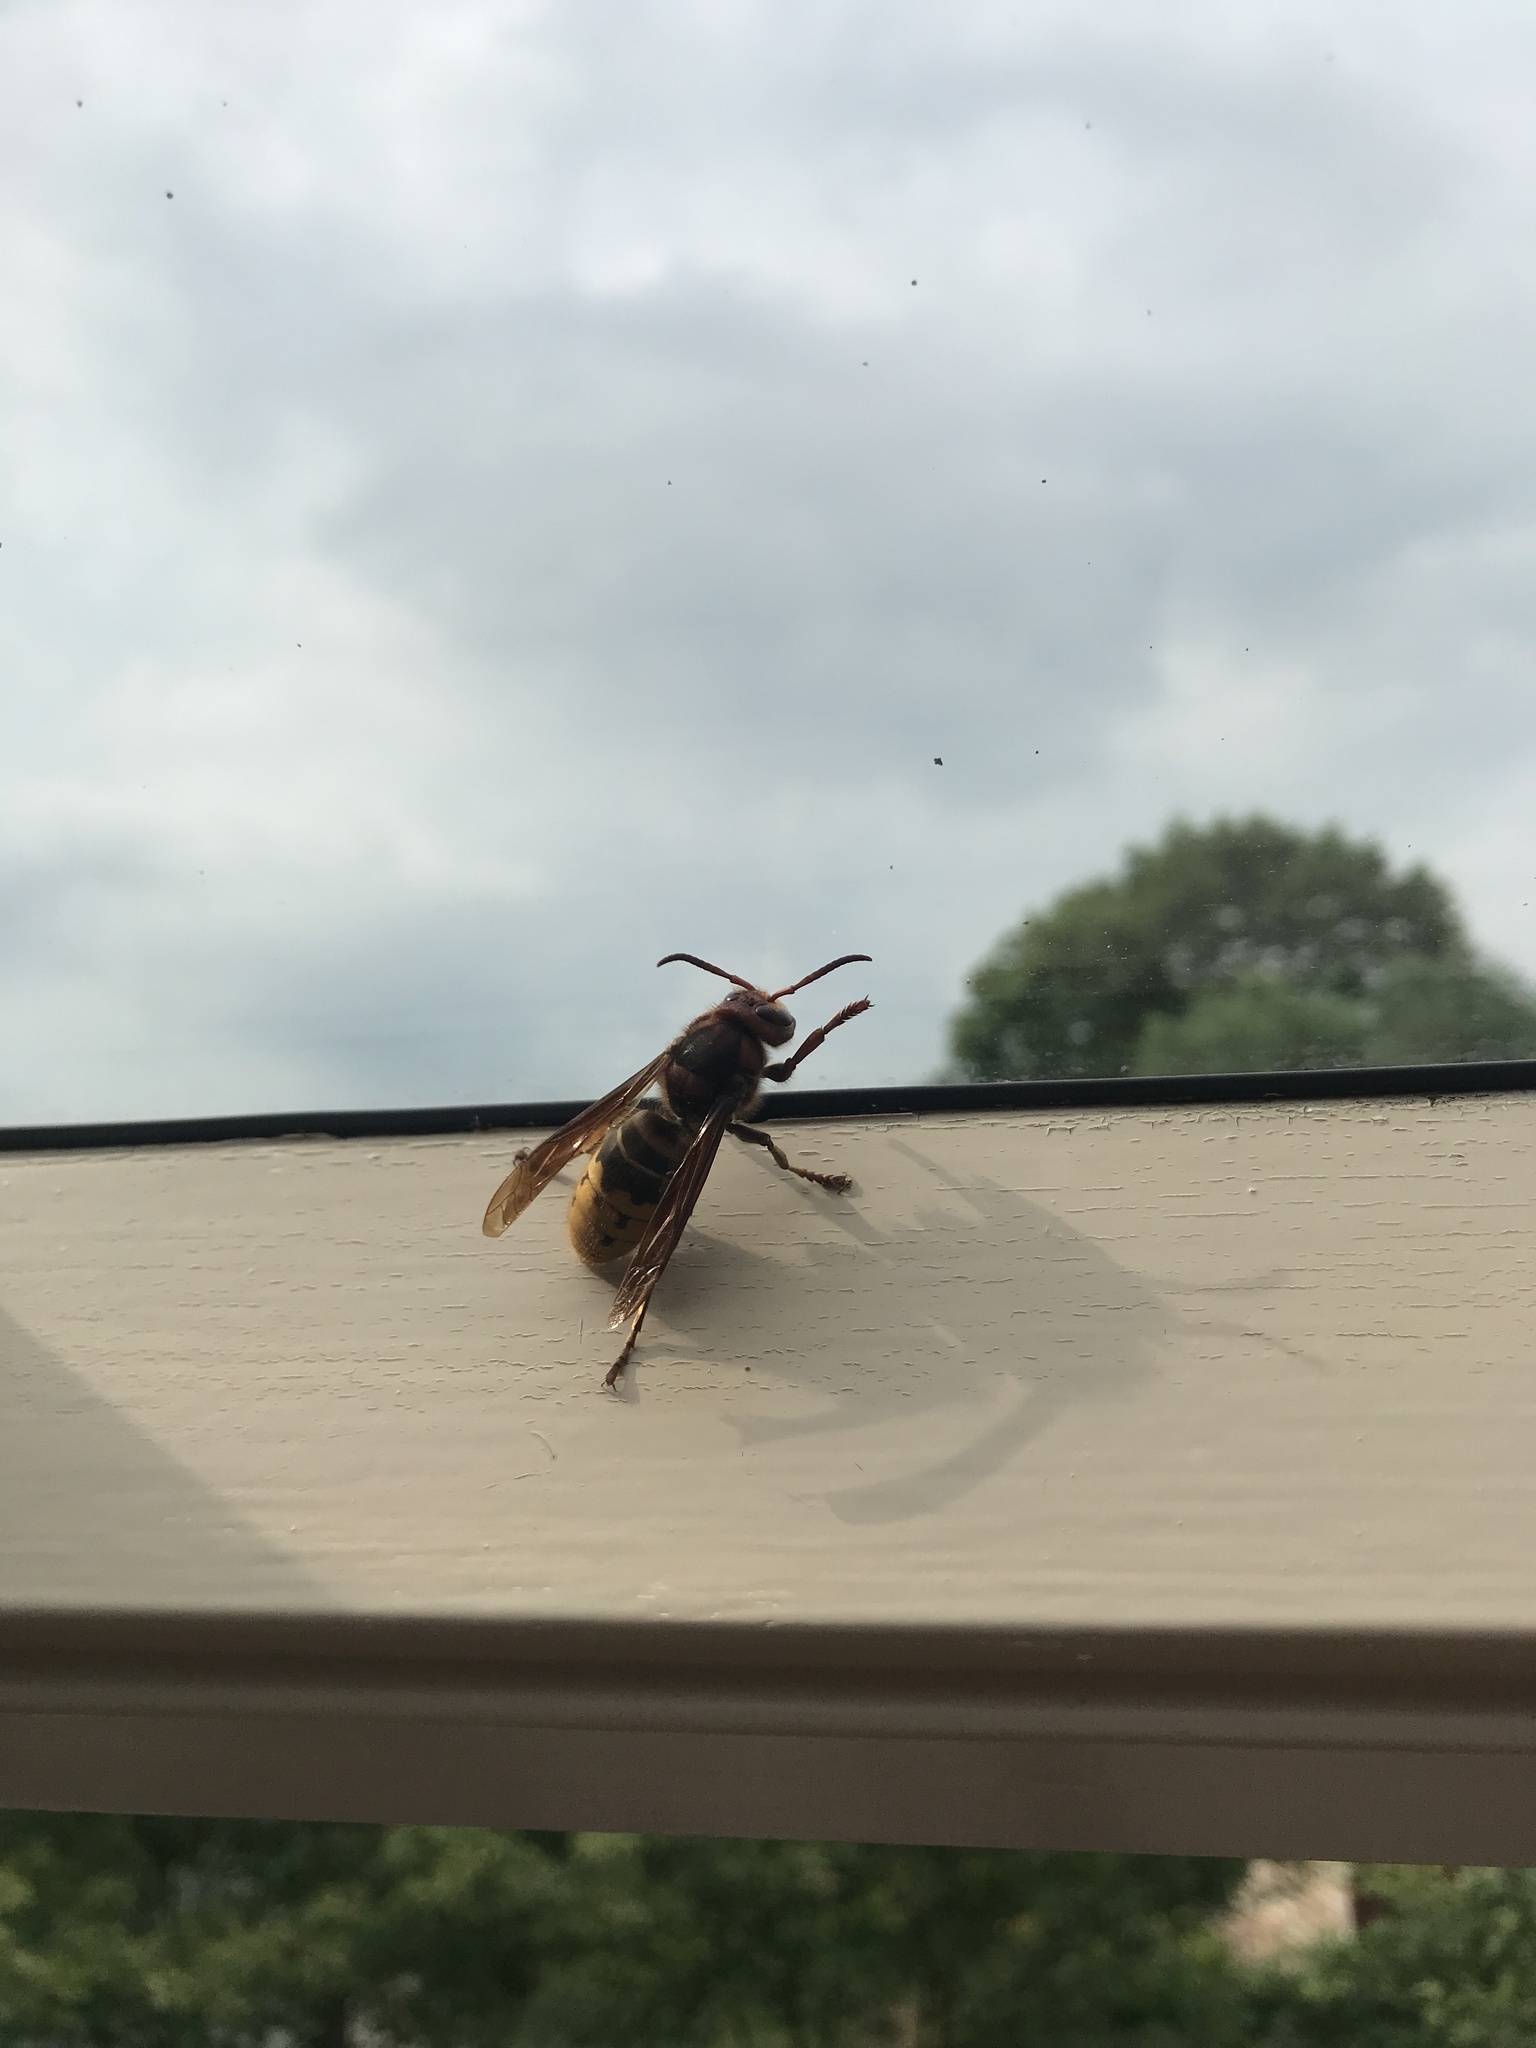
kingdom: Animalia
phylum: Arthropoda
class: Insecta
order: Hymenoptera
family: Vespidae
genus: Vespa
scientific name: Vespa crabro
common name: Hornet
